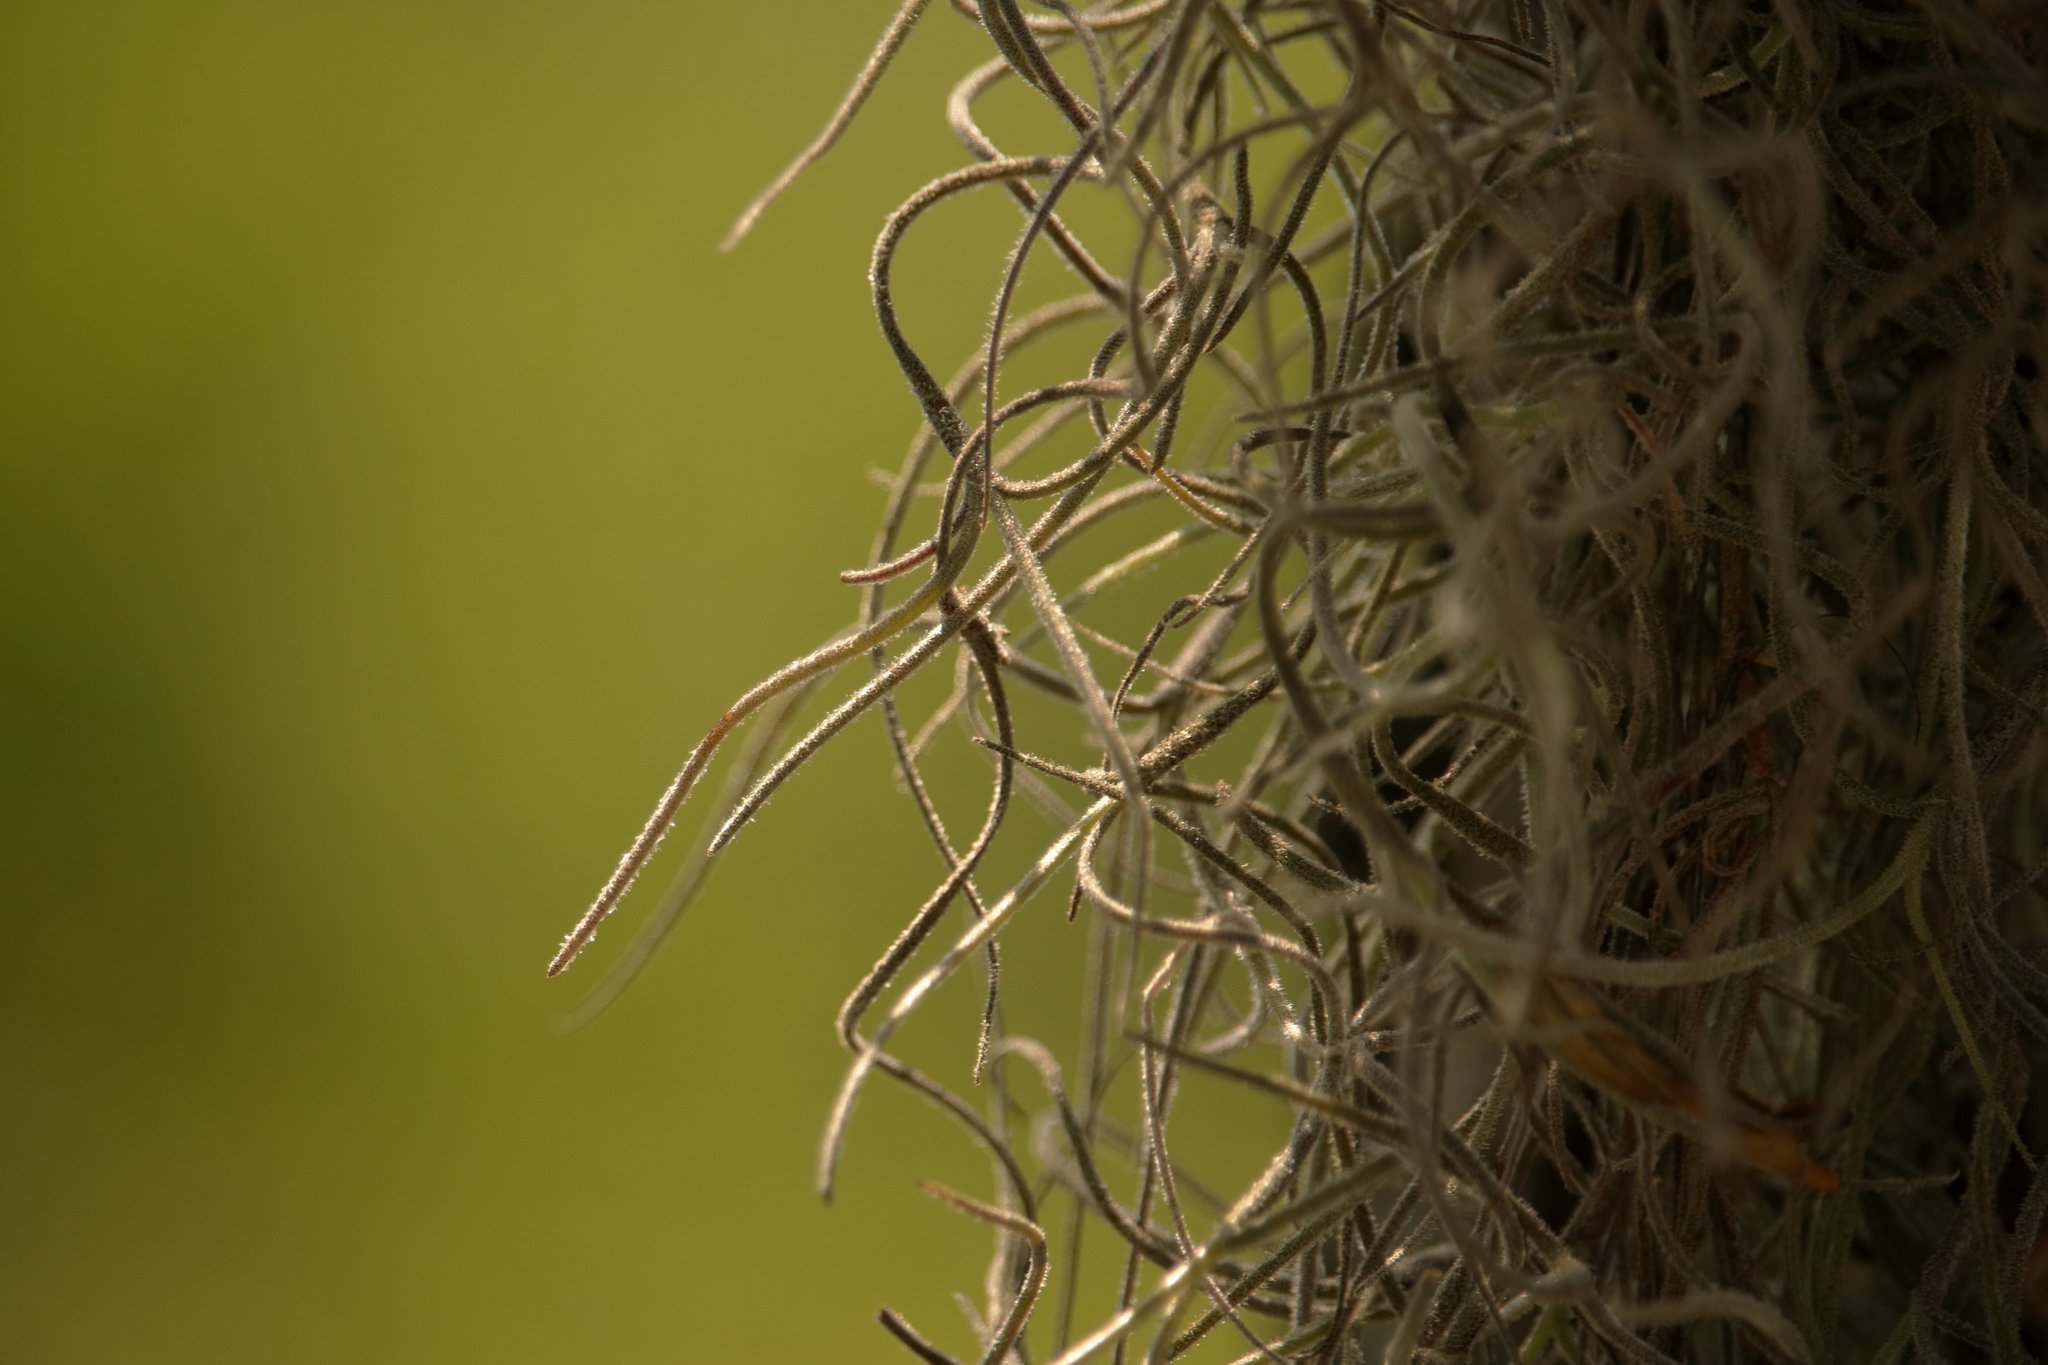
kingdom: Plantae
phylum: Tracheophyta
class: Liliopsida
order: Poales
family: Bromeliaceae
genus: Tillandsia
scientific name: Tillandsia usneoides
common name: Spanish moss
